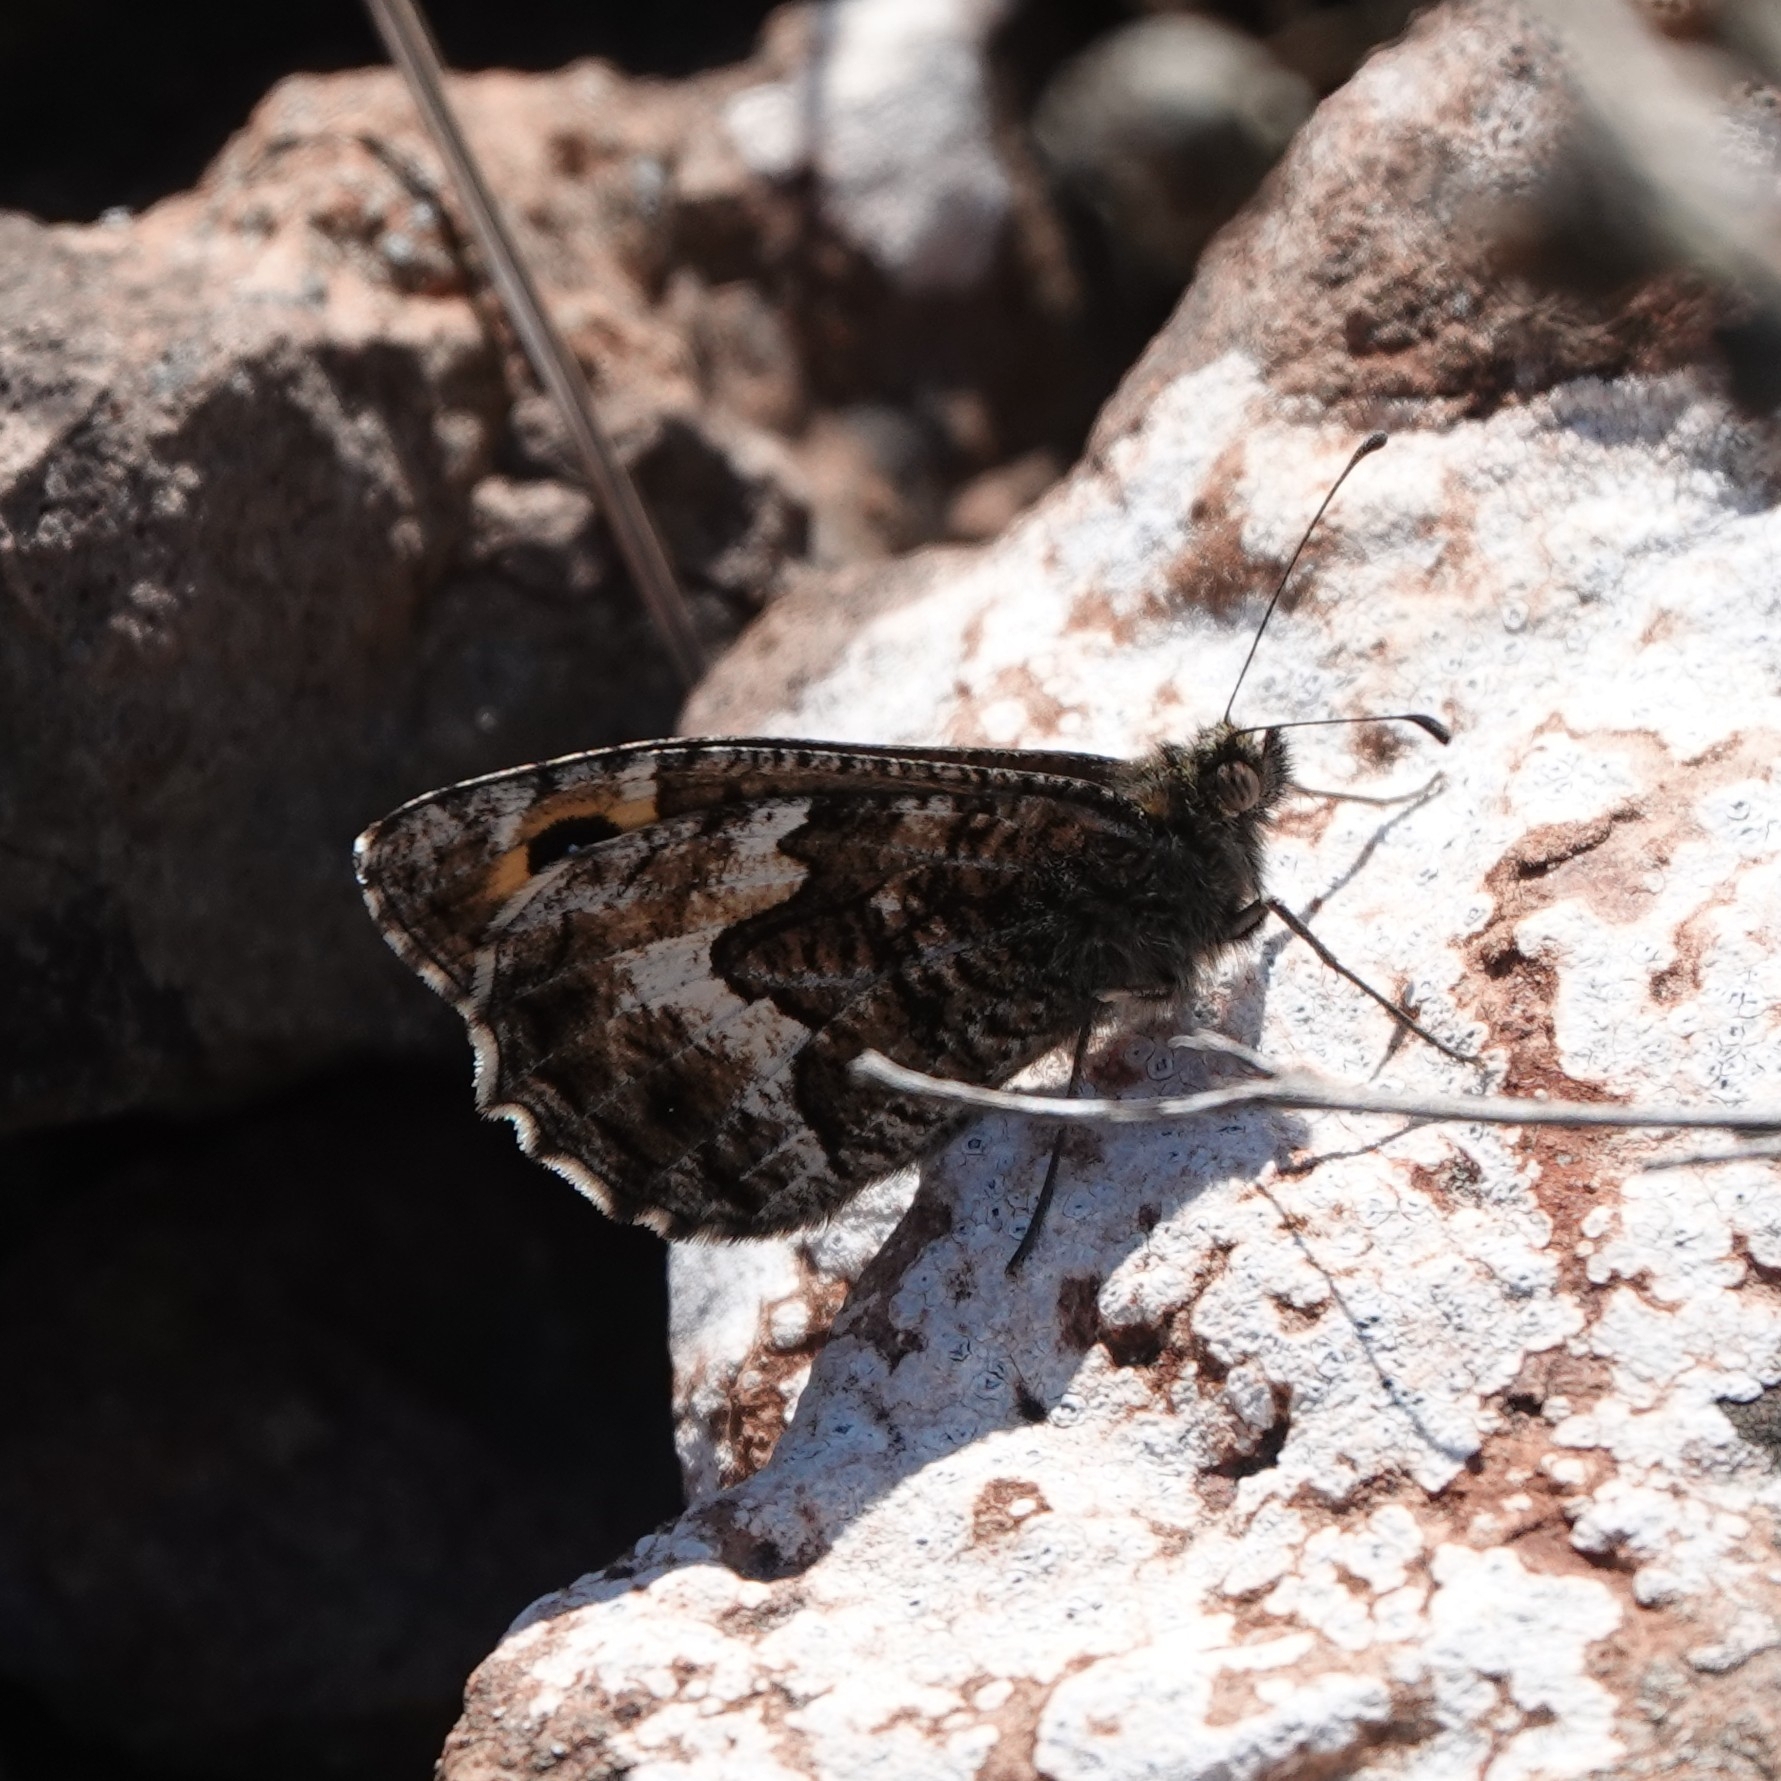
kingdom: Animalia
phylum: Arthropoda
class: Insecta
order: Lepidoptera
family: Nymphalidae
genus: Hipparchia
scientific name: Hipparchia semele
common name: Grayling
